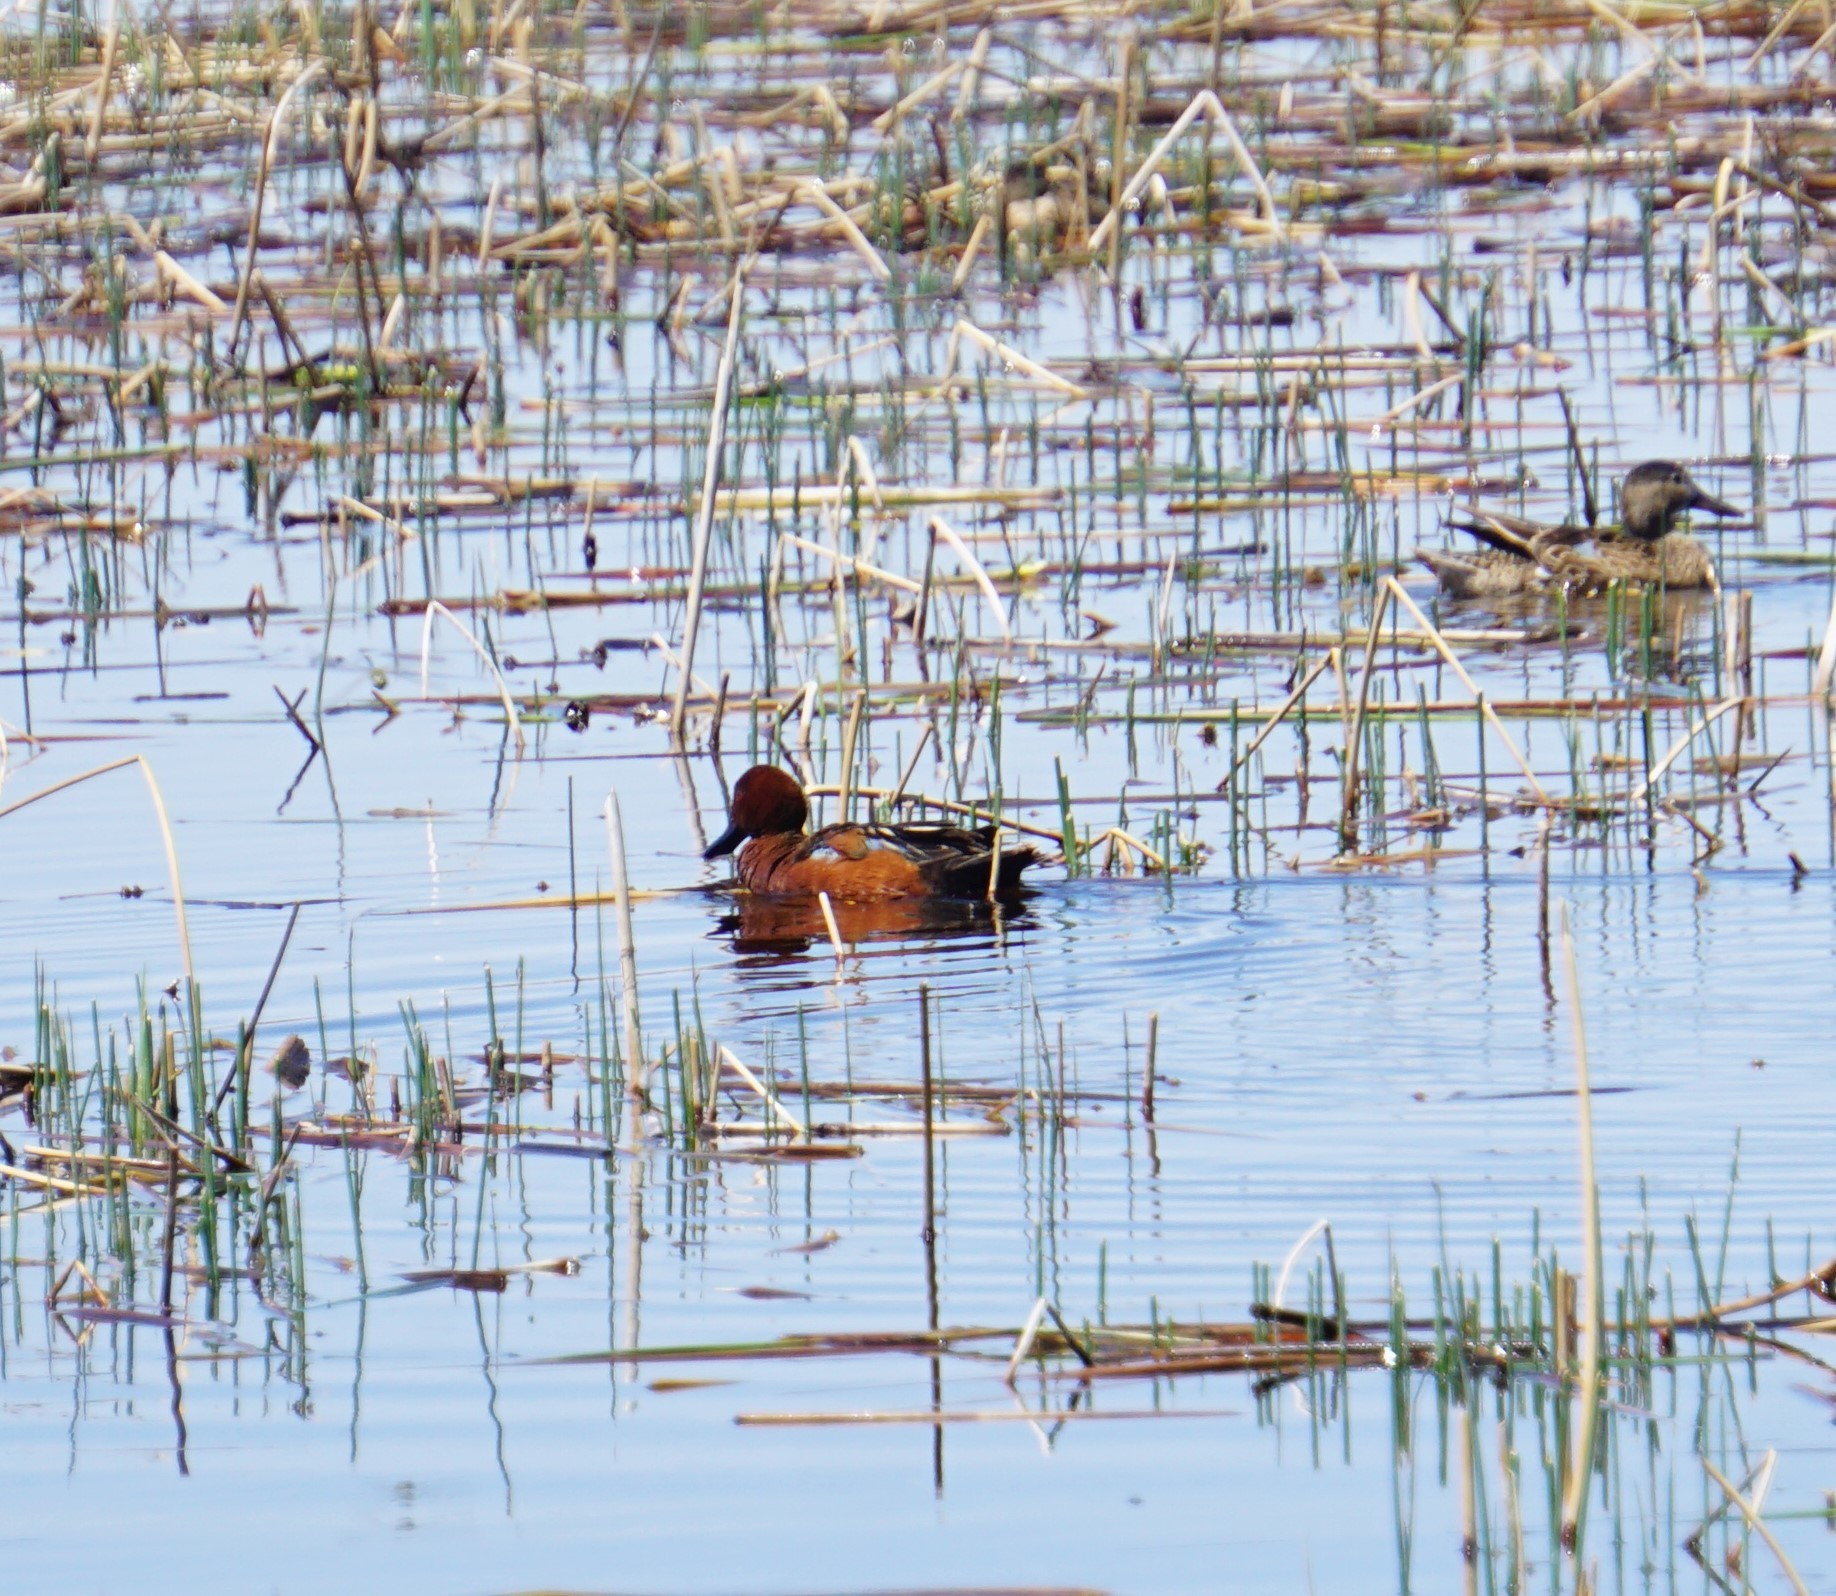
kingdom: Animalia
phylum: Chordata
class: Aves
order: Anseriformes
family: Anatidae
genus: Spatula
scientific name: Spatula cyanoptera
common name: Cinnamon teal
